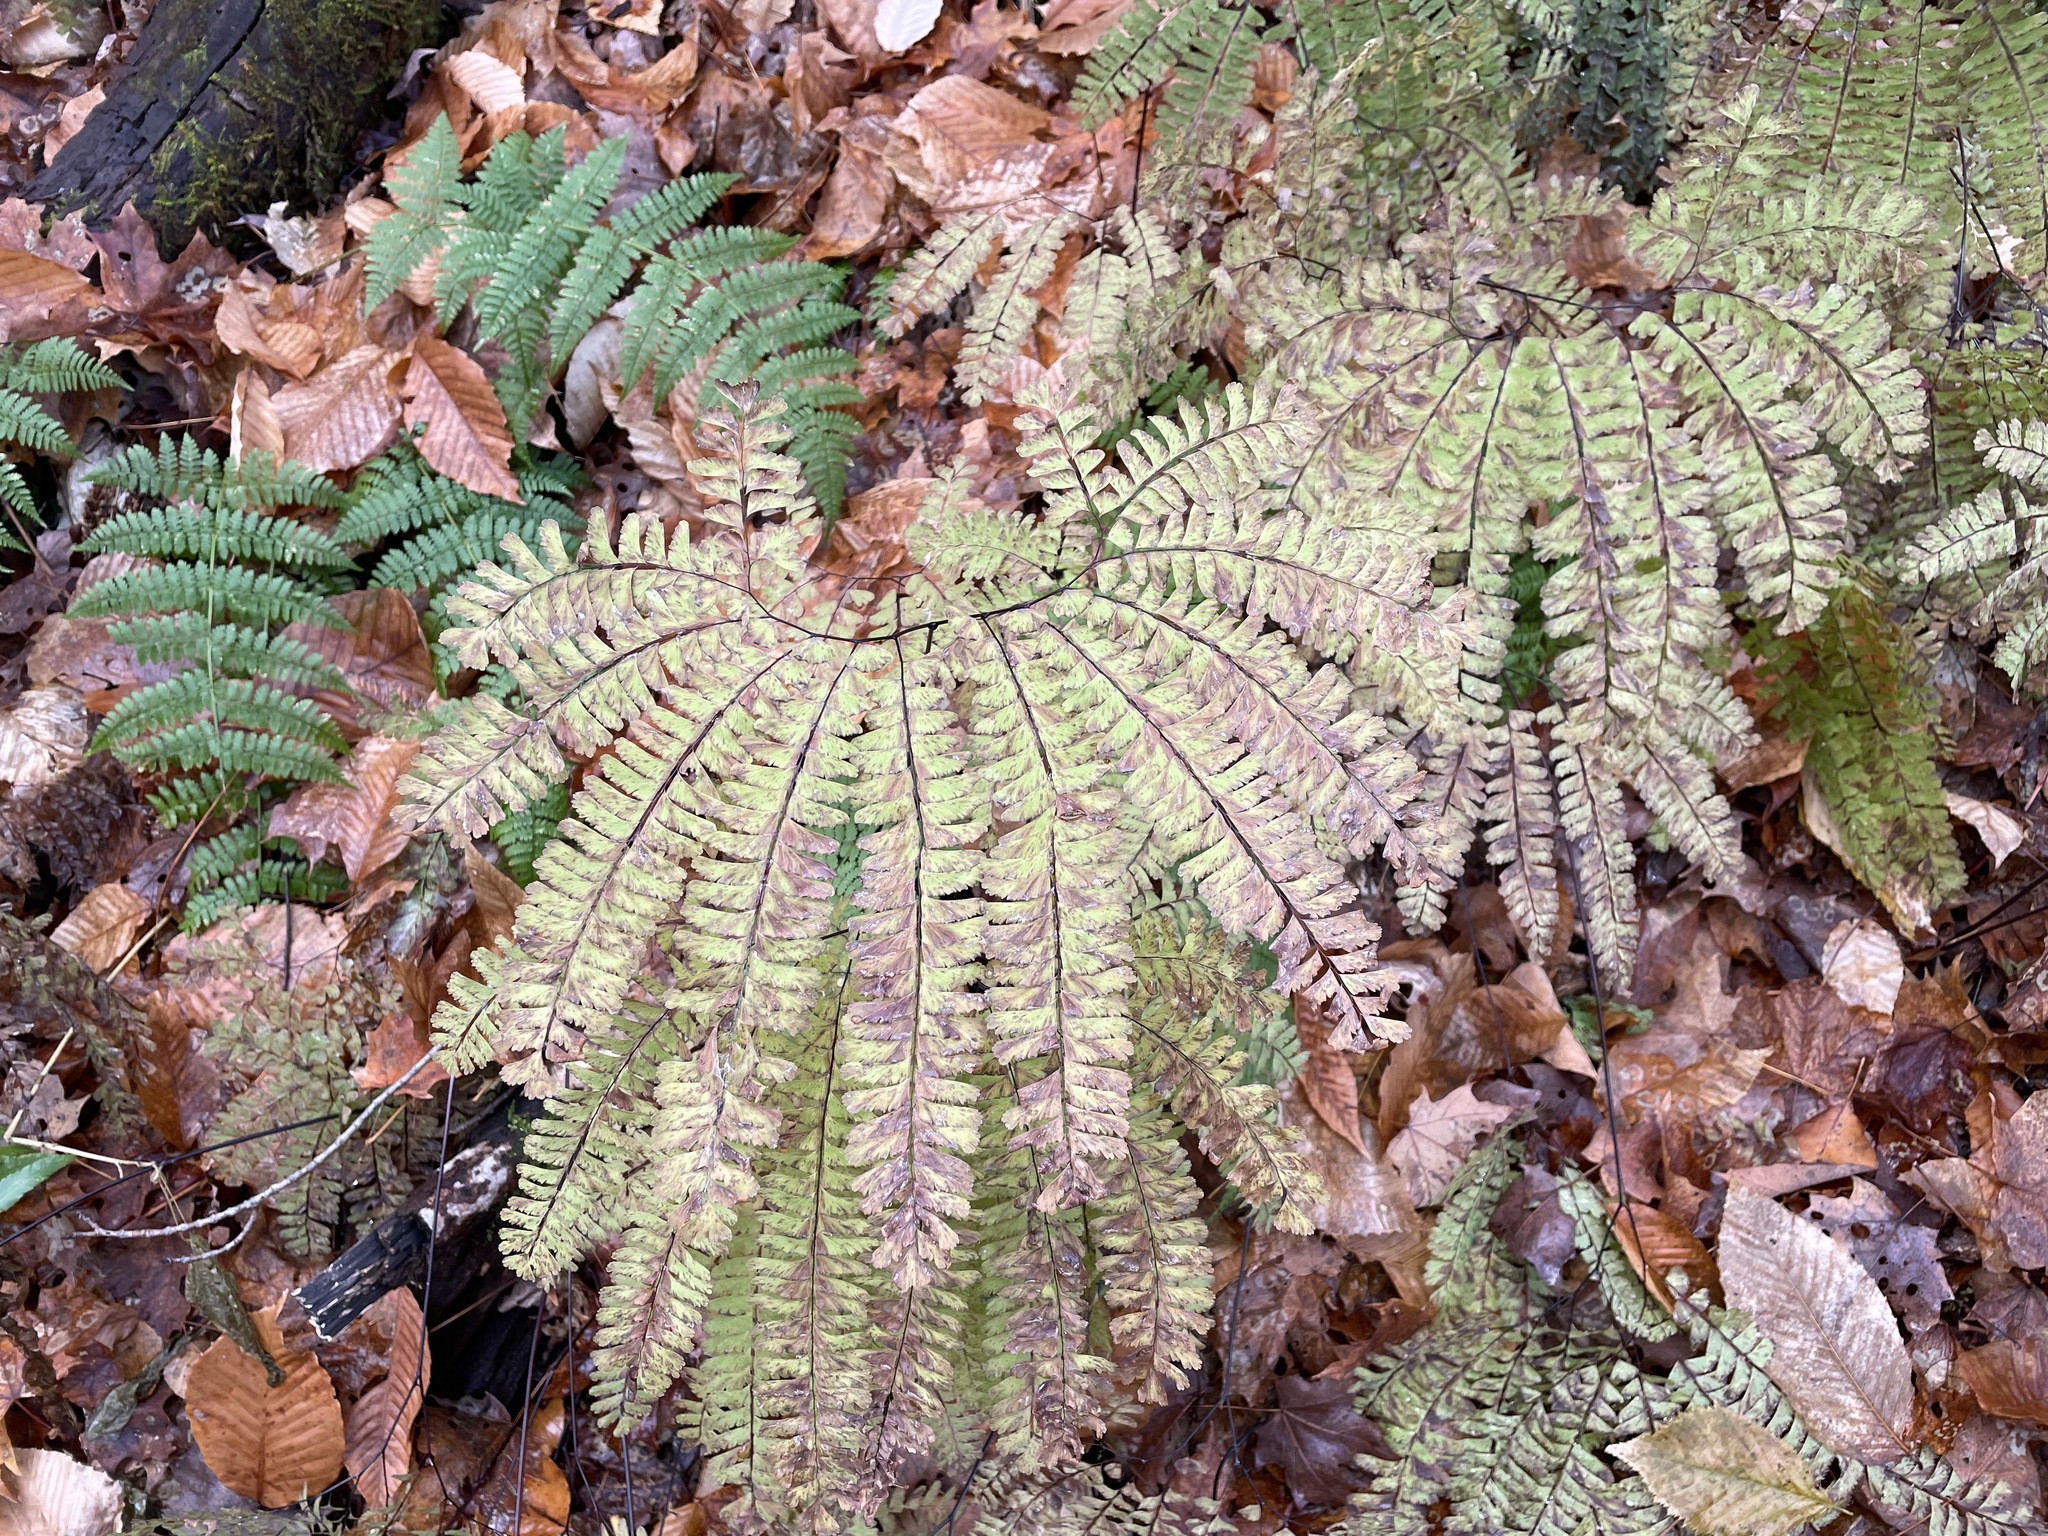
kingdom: Plantae
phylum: Tracheophyta
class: Polypodiopsida
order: Polypodiales
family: Pteridaceae
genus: Adiantum
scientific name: Adiantum pedatum
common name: Five-finger fern
